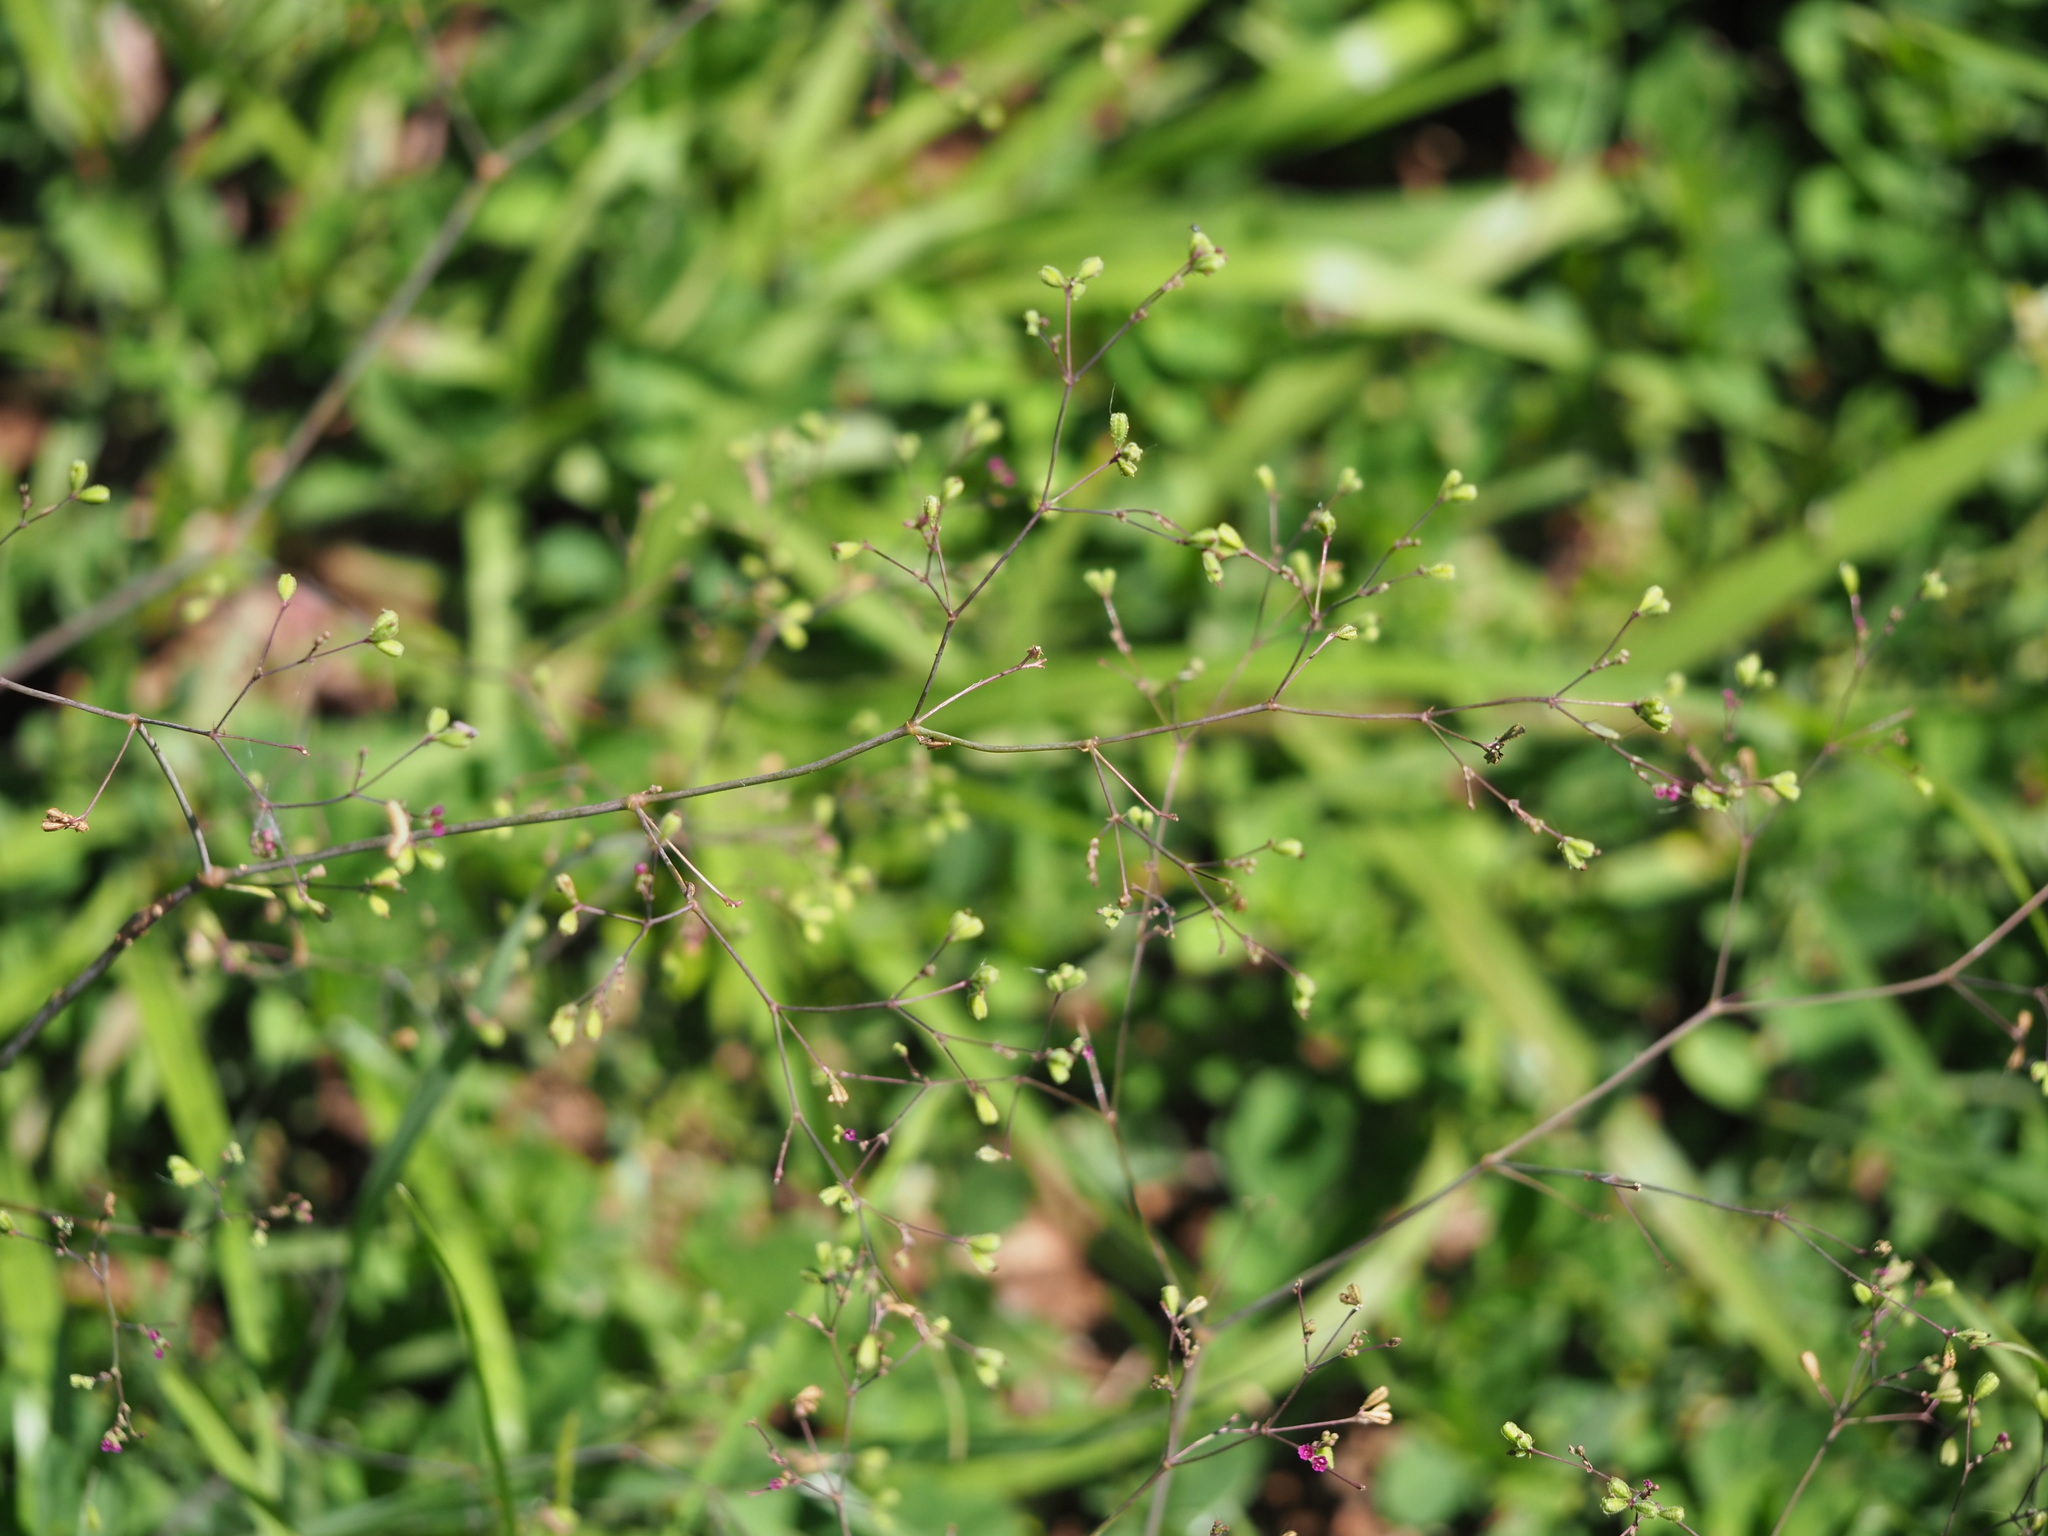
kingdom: Plantae
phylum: Tracheophyta
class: Magnoliopsida
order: Caryophyllales
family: Nyctaginaceae
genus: Boerhavia
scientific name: Boerhavia diffusa
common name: Red spiderling
